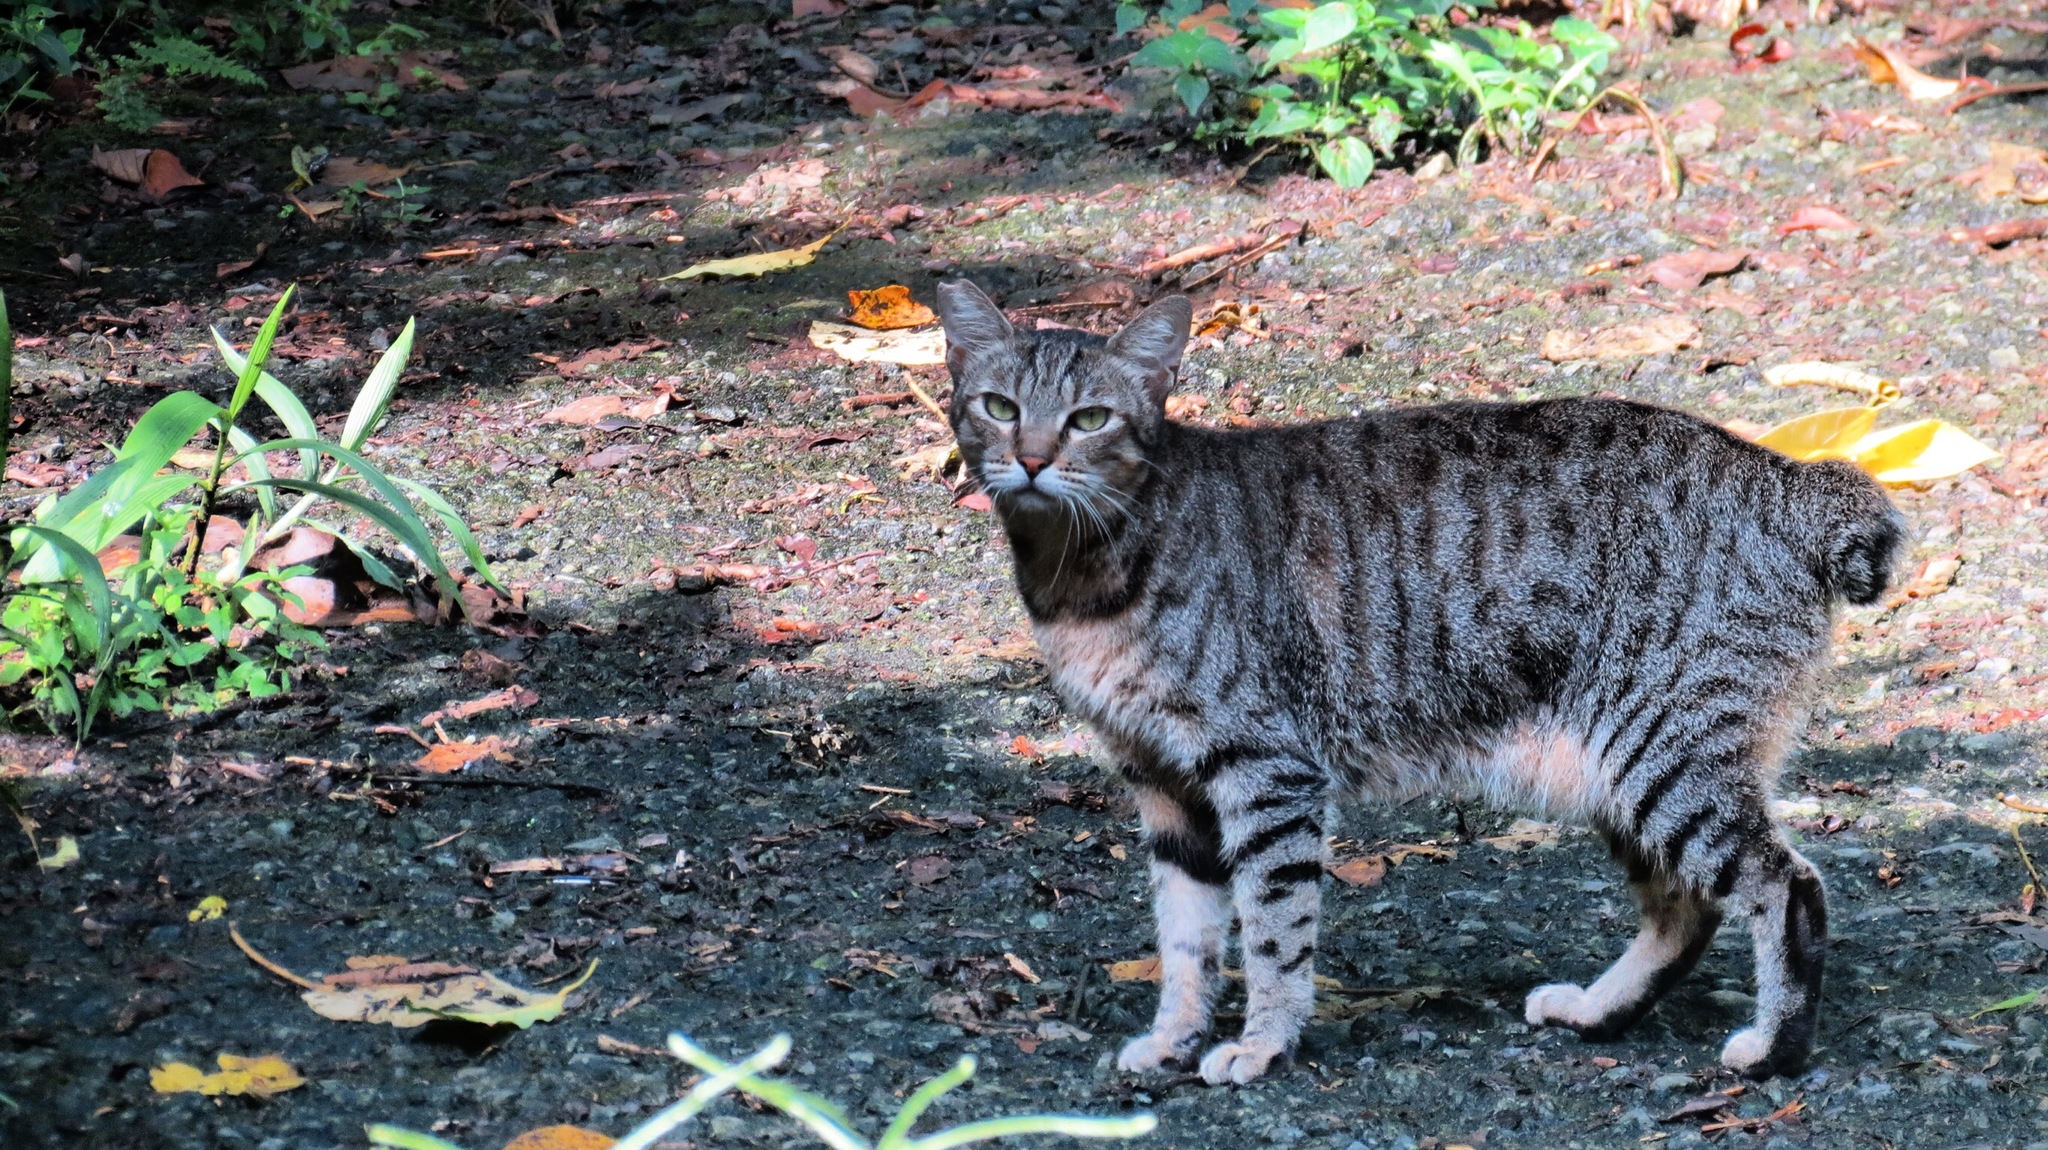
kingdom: Animalia
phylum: Chordata
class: Mammalia
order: Carnivora
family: Felidae
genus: Felis
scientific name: Felis catus
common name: Domestic cat
